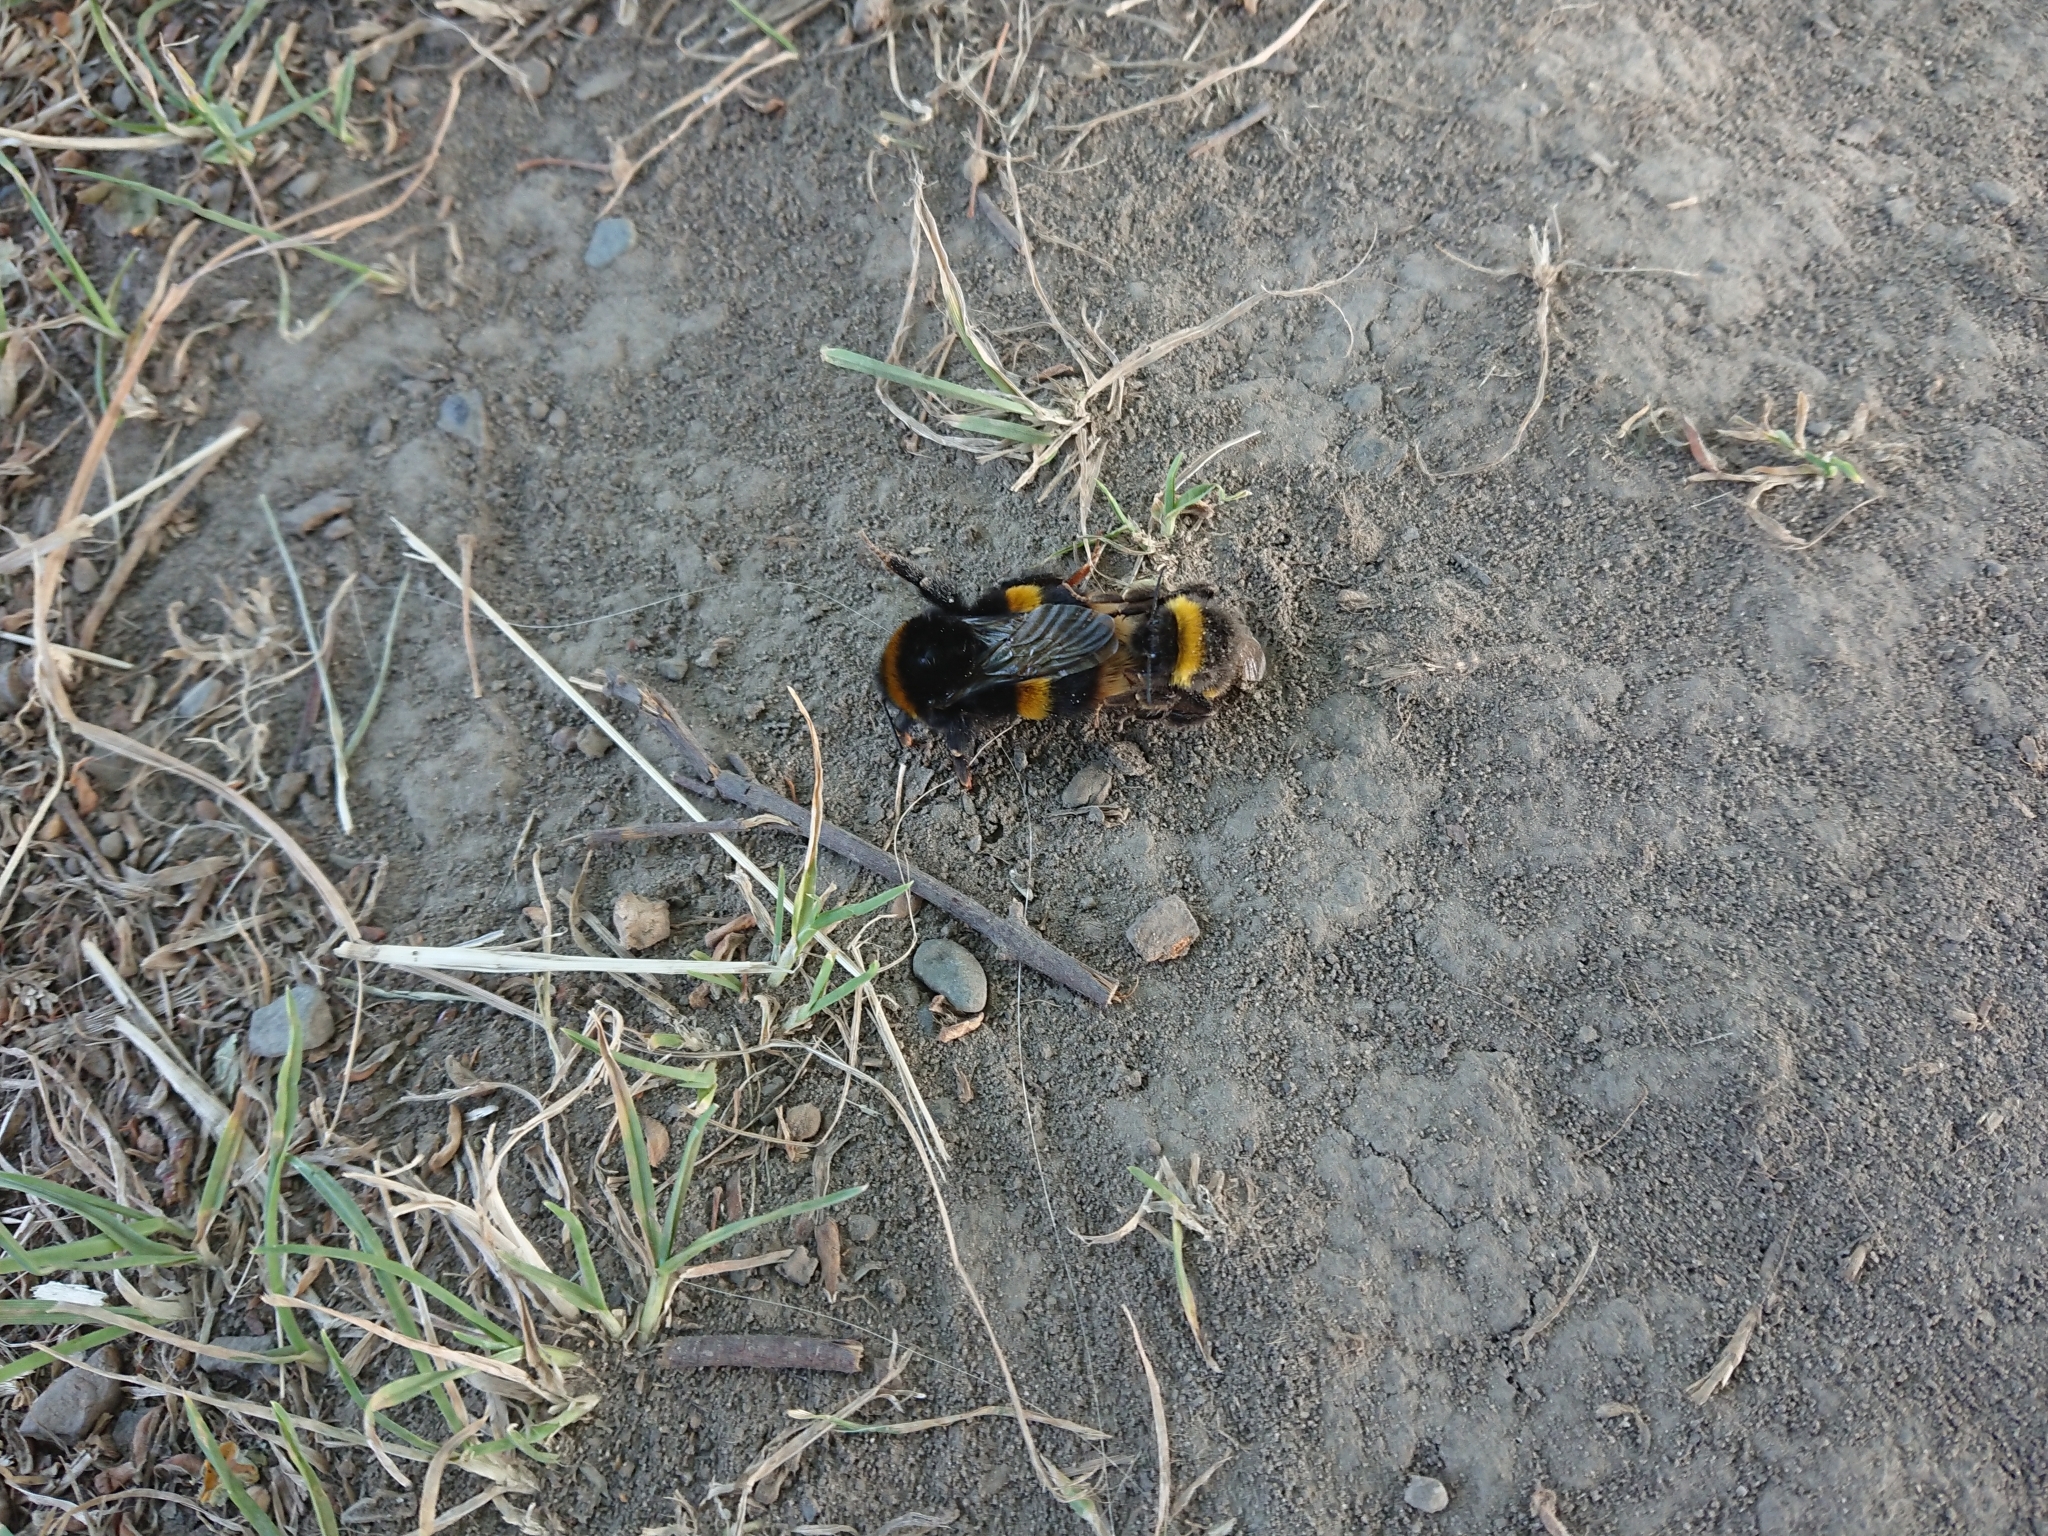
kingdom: Animalia
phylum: Arthropoda
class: Insecta
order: Hymenoptera
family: Apidae
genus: Bombus
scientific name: Bombus terrestris
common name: Buff-tailed bumblebee
